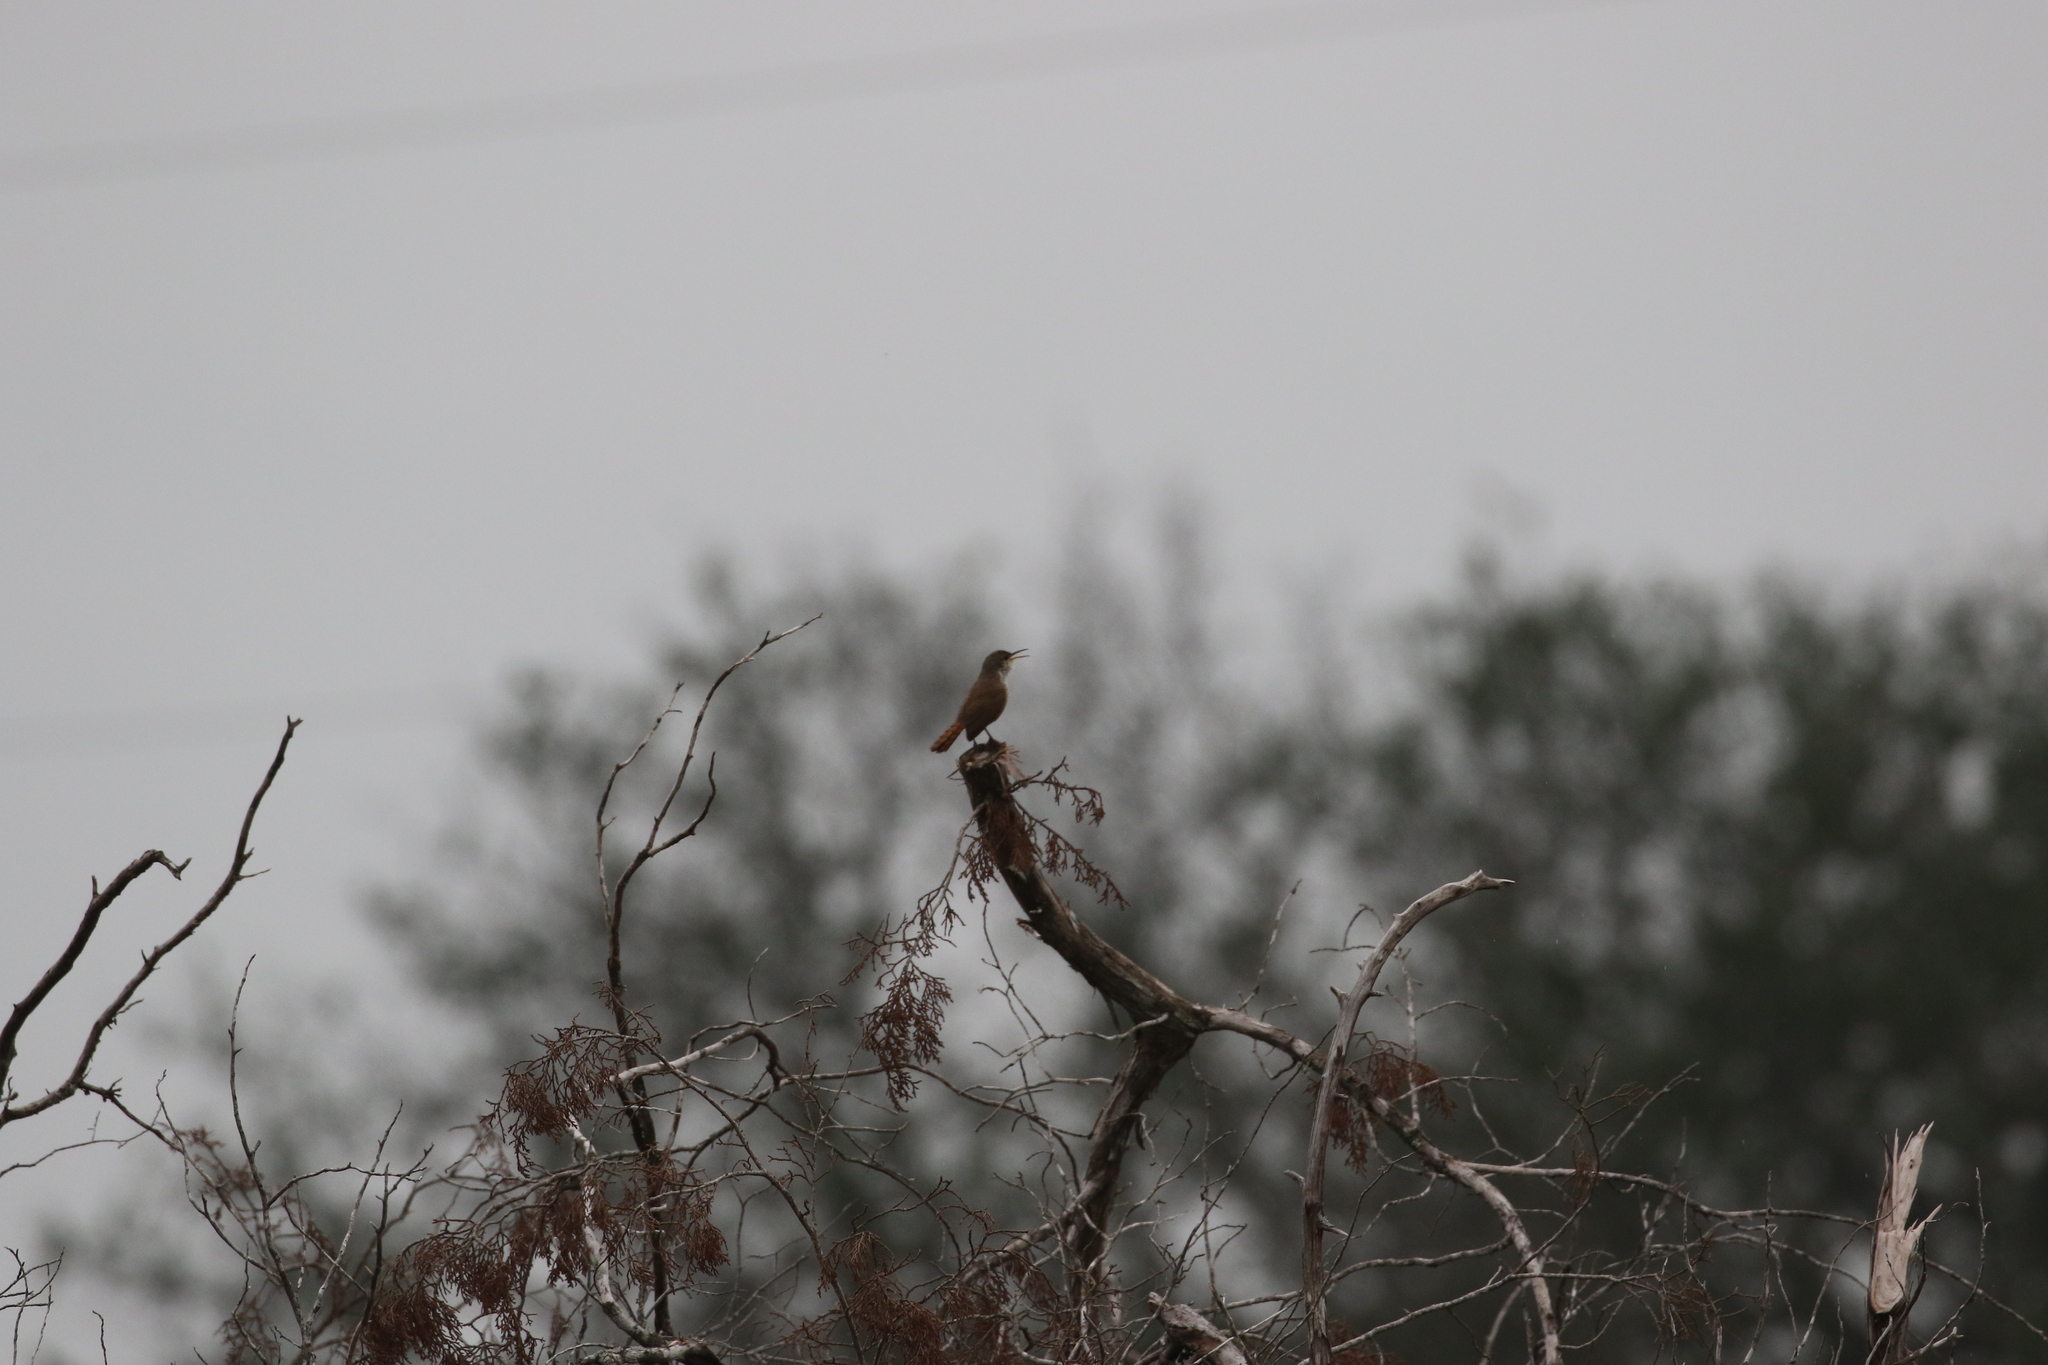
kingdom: Animalia
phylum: Chordata
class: Aves
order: Passeriformes
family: Troglodytidae
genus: Catherpes
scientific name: Catherpes mexicanus
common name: Canyon wren
